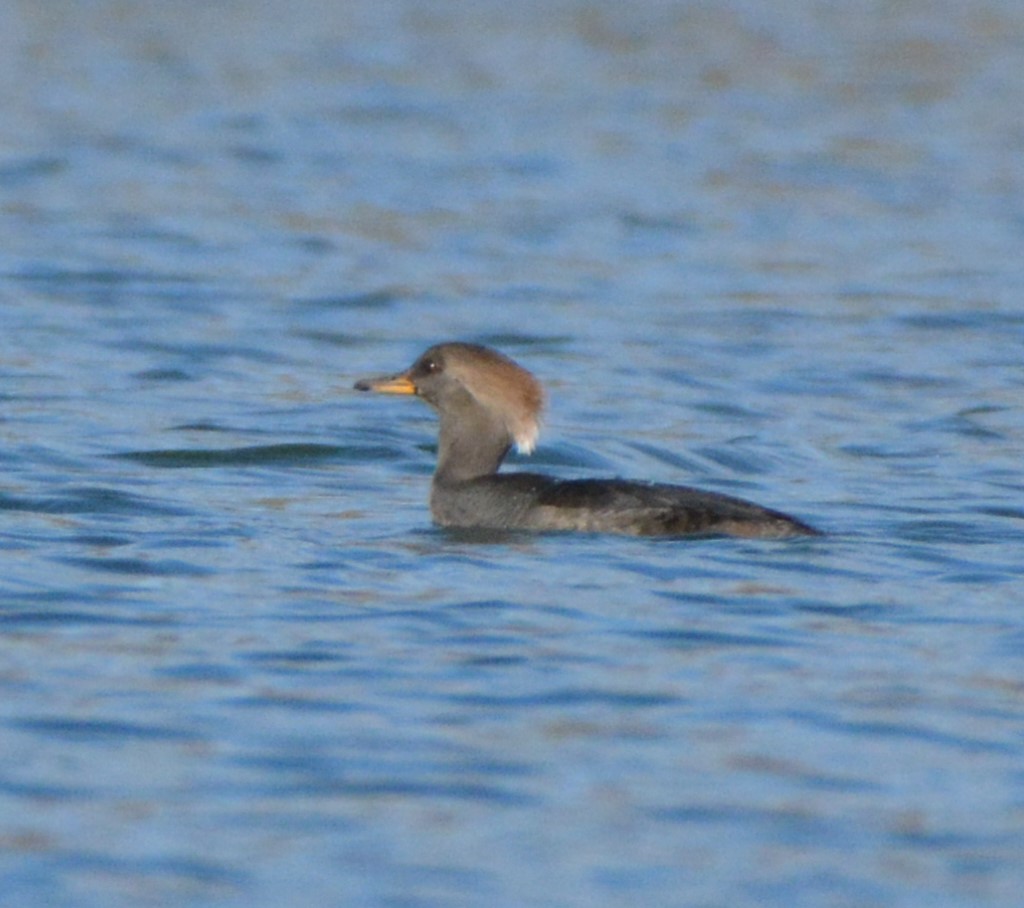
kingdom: Animalia
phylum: Chordata
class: Aves
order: Anseriformes
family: Anatidae
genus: Lophodytes
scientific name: Lophodytes cucullatus
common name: Hooded merganser
